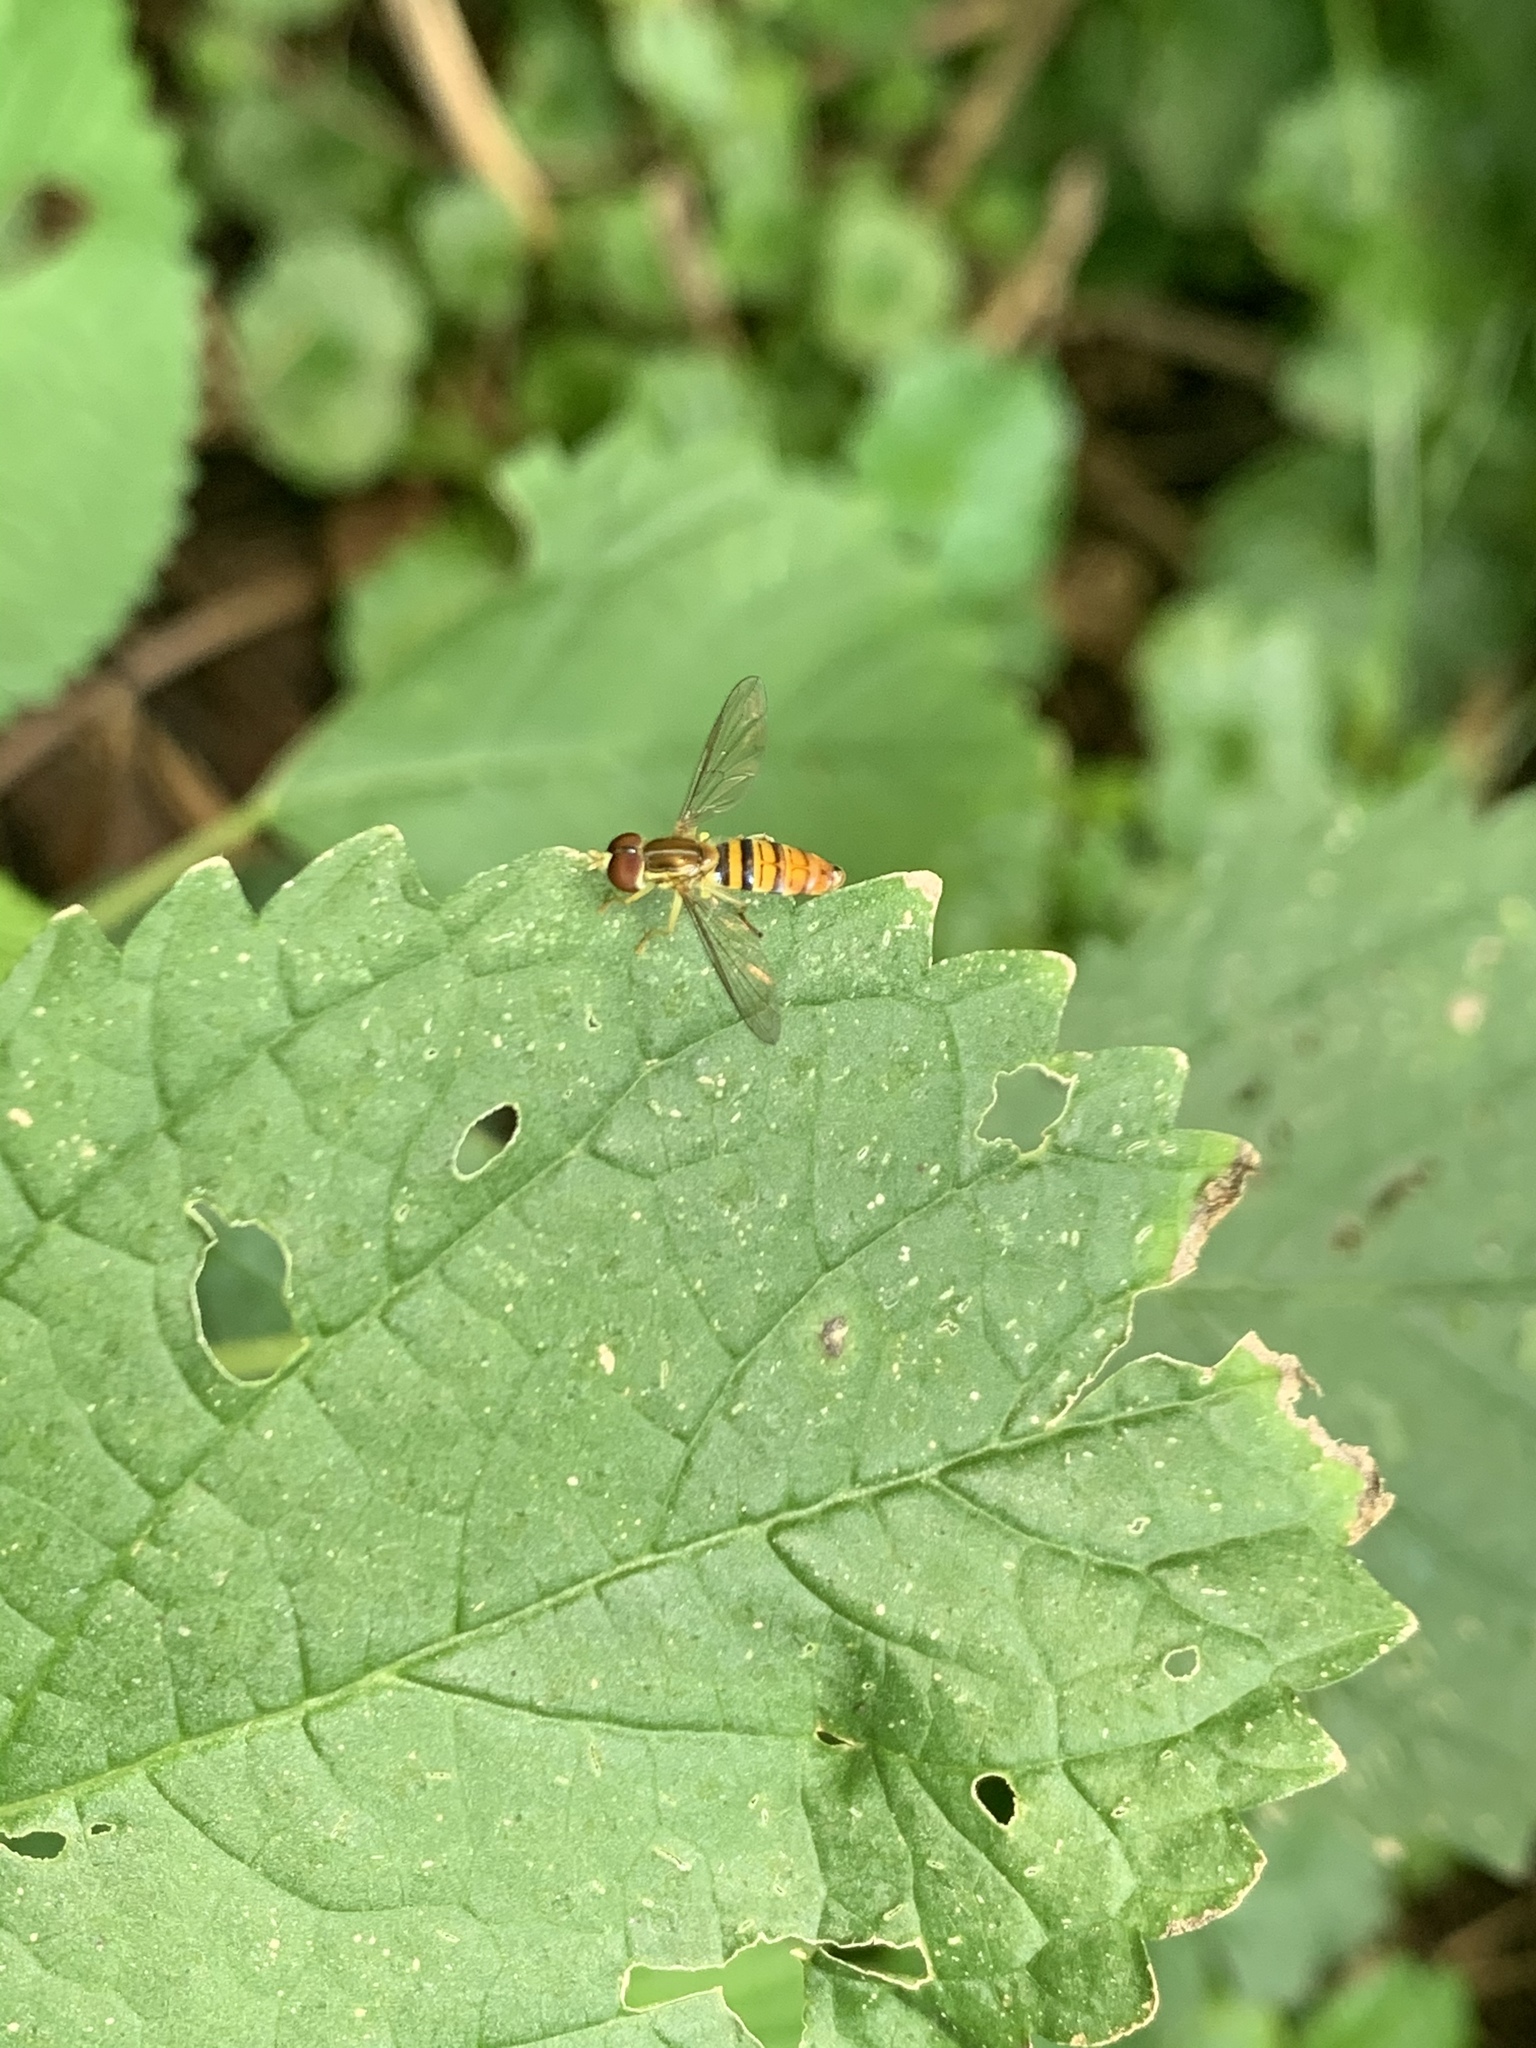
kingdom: Animalia
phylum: Arthropoda
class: Insecta
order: Diptera
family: Syrphidae
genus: Toxomerus
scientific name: Toxomerus politus
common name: Maize calligrapher
